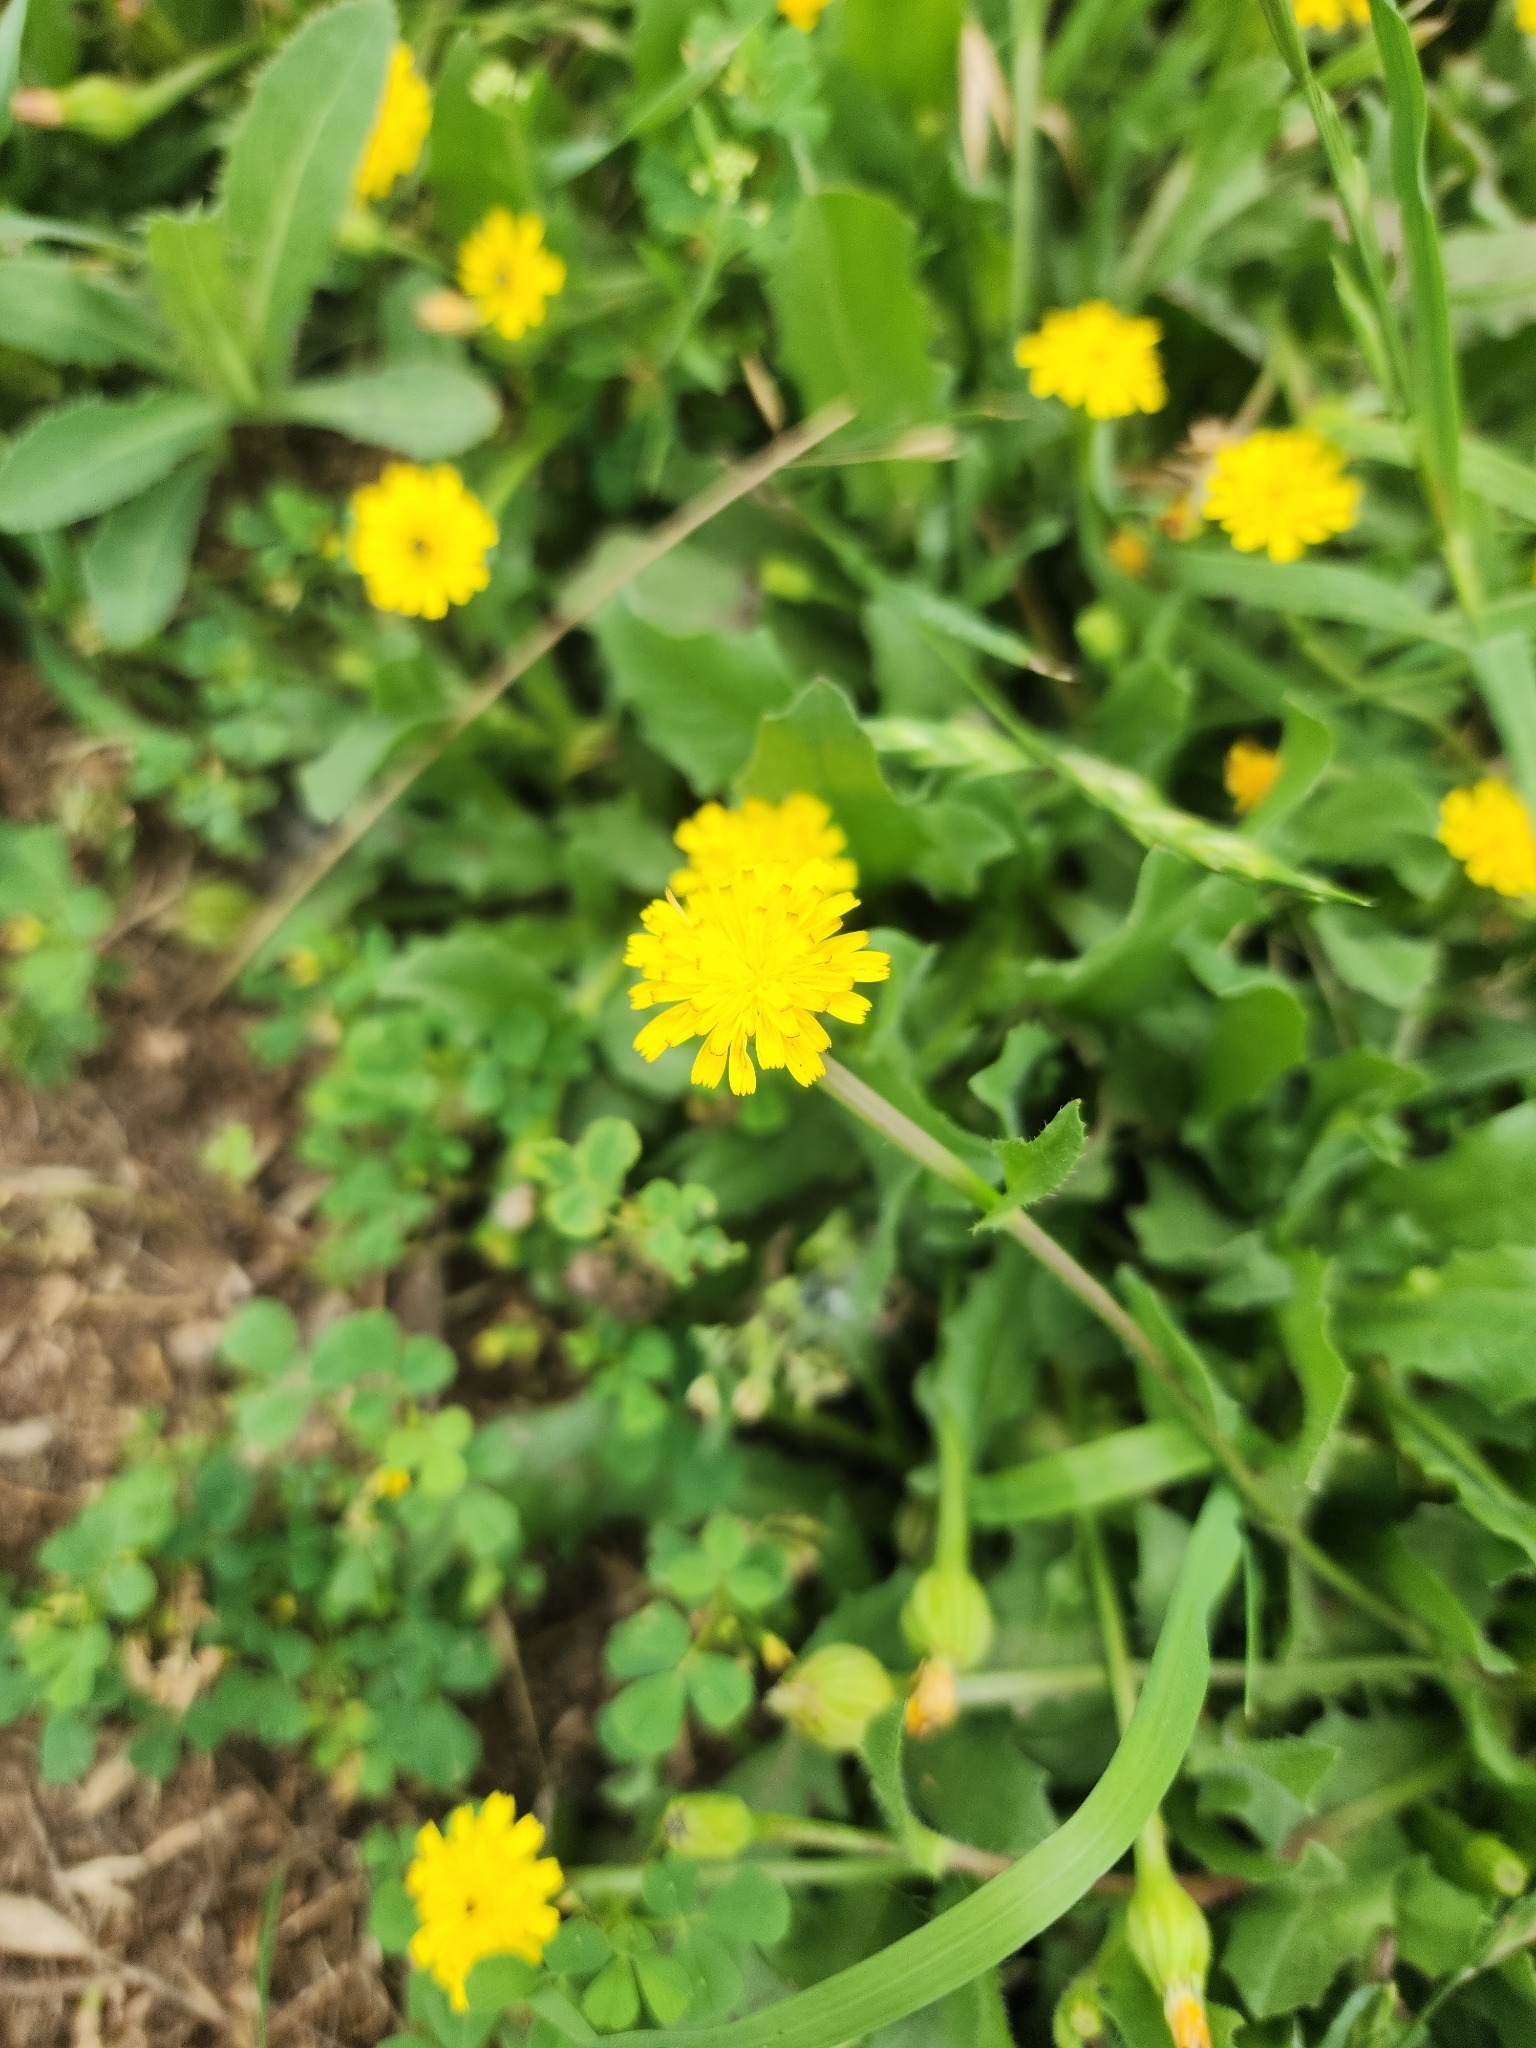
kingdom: Plantae
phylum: Tracheophyta
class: Magnoliopsida
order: Asterales
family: Asteraceae
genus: Hedypnois
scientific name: Hedypnois rhagadioloides
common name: Cretan weed
